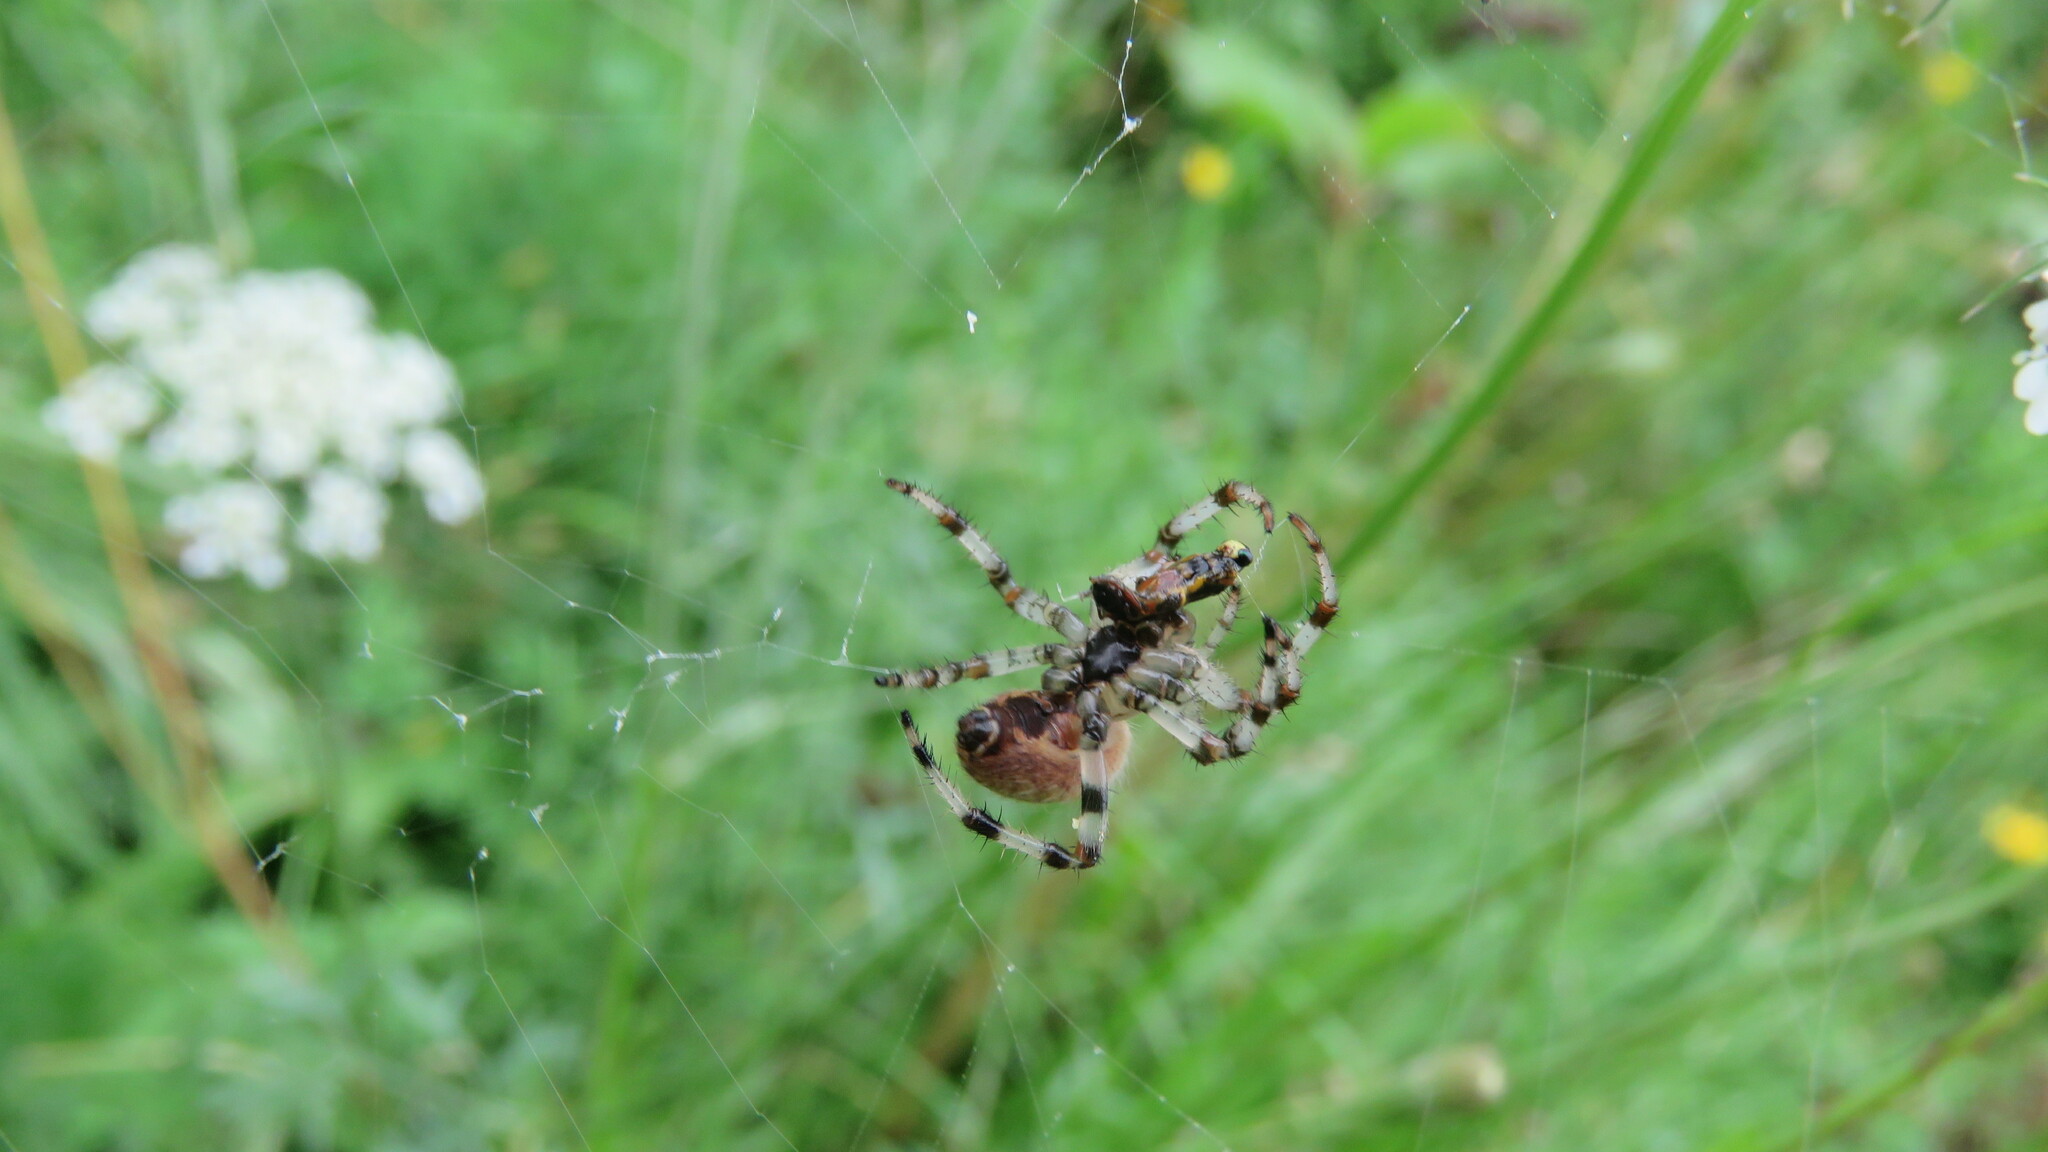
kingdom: Animalia
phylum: Arthropoda
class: Arachnida
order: Araneae
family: Araneidae
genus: Araneus
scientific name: Araneus trifolium
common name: Shamrock orbweaver
